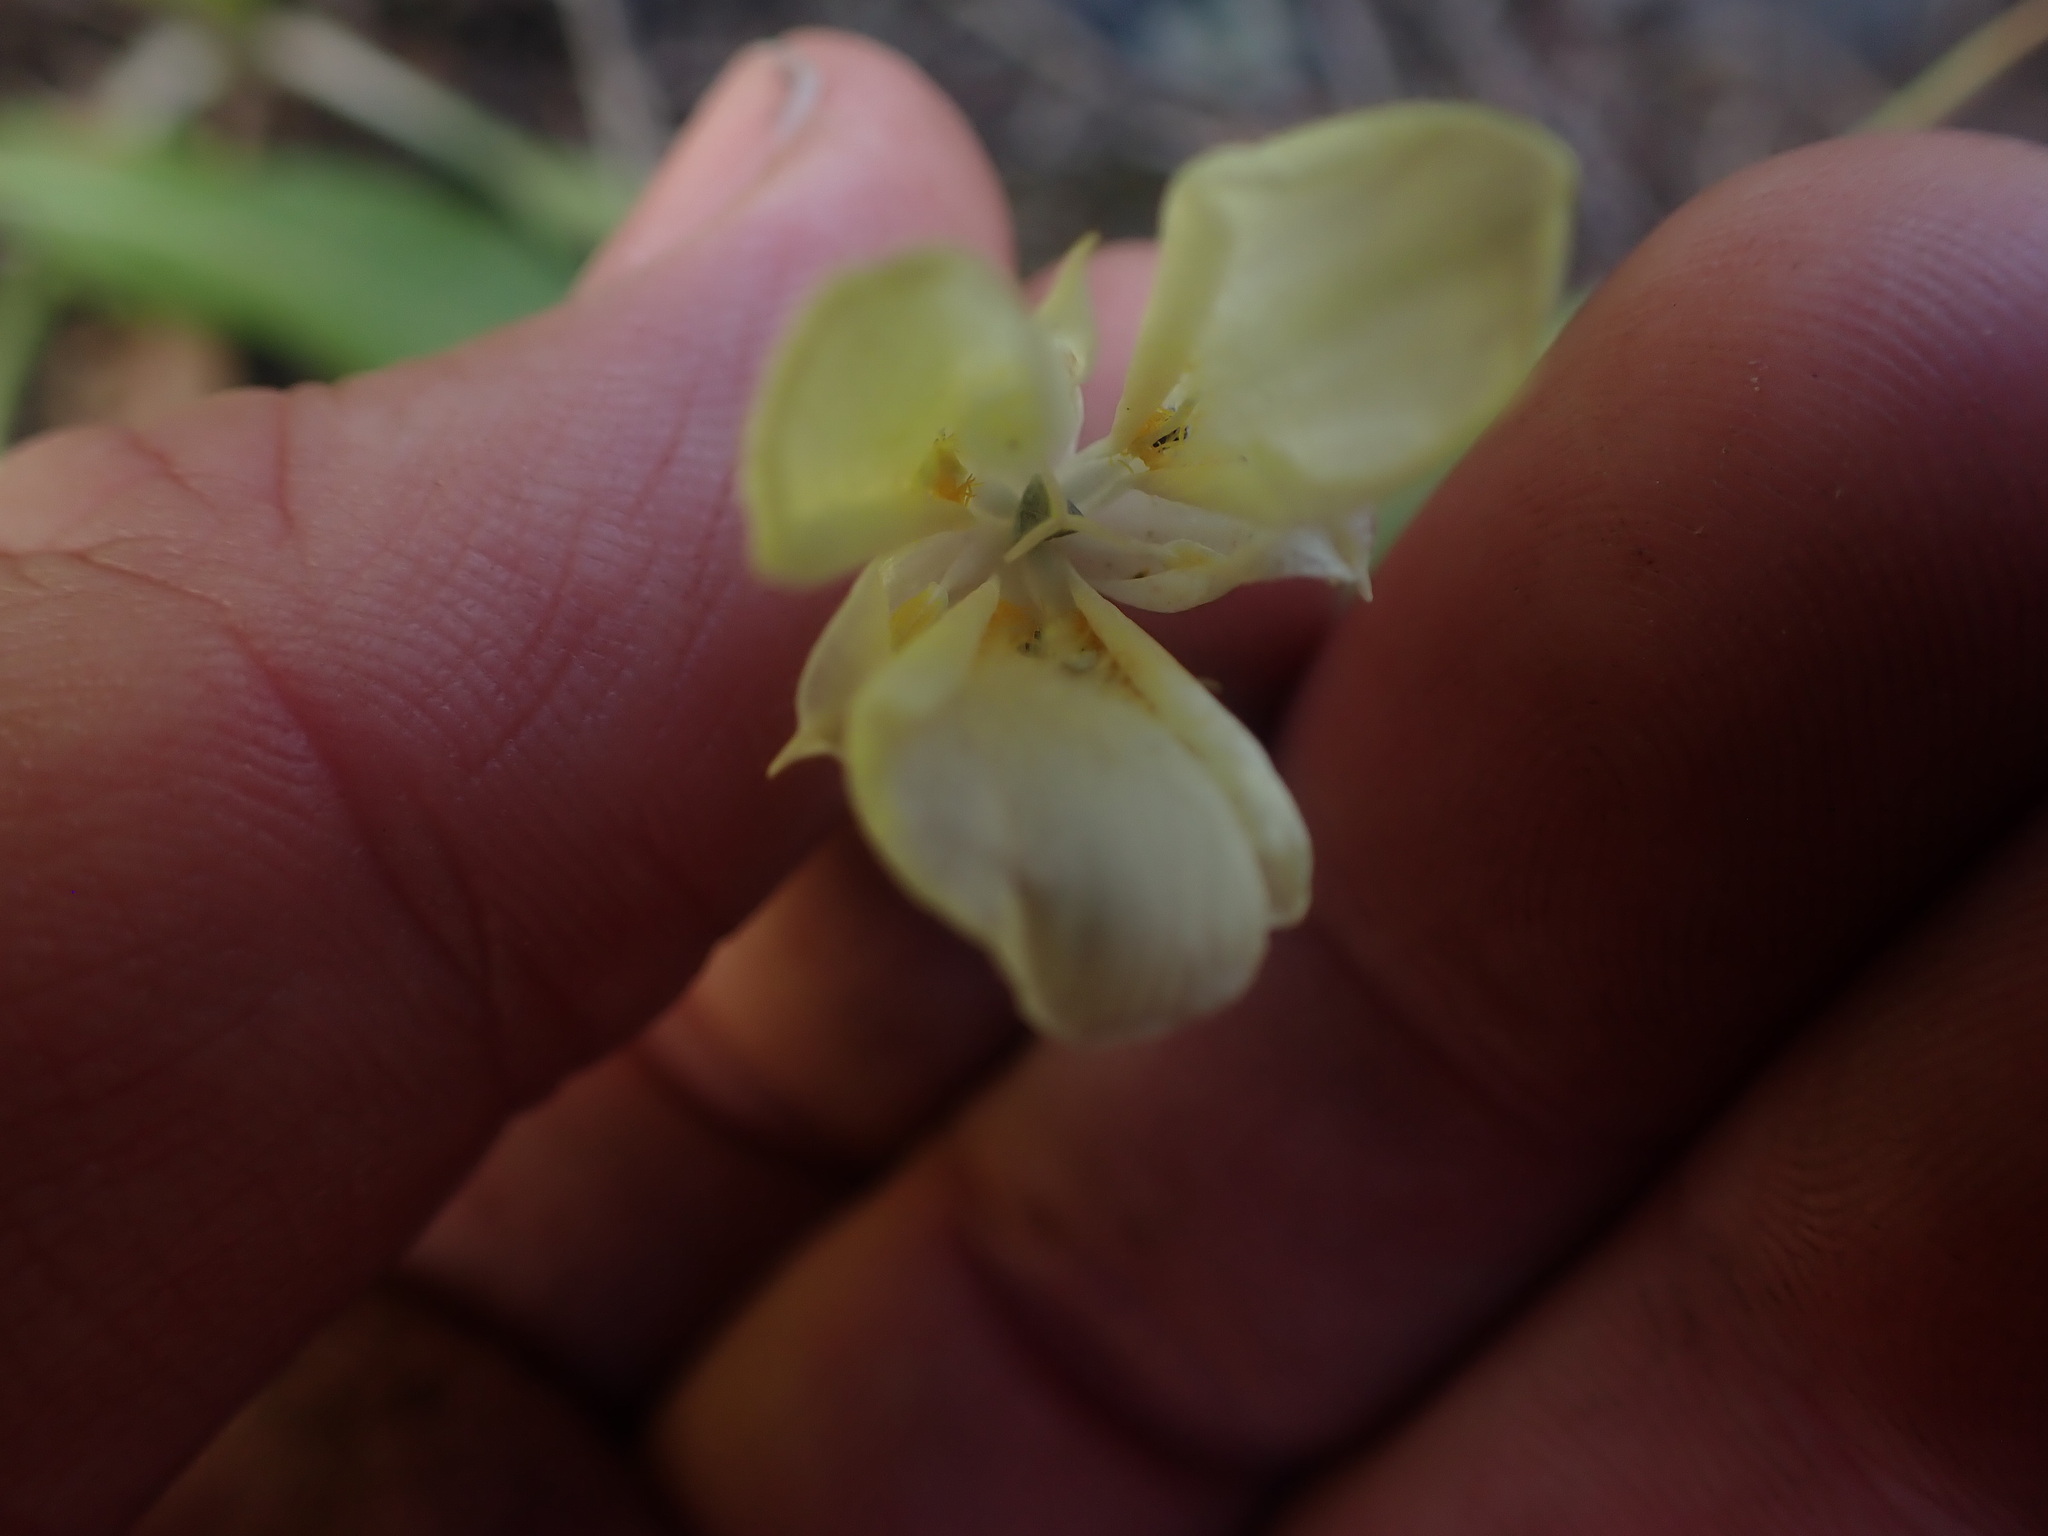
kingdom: Plantae
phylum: Tracheophyta
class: Liliopsida
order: Liliales
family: Liliaceae
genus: Calochortus
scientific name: Calochortus apiculatus
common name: Baker's mariposa lily
